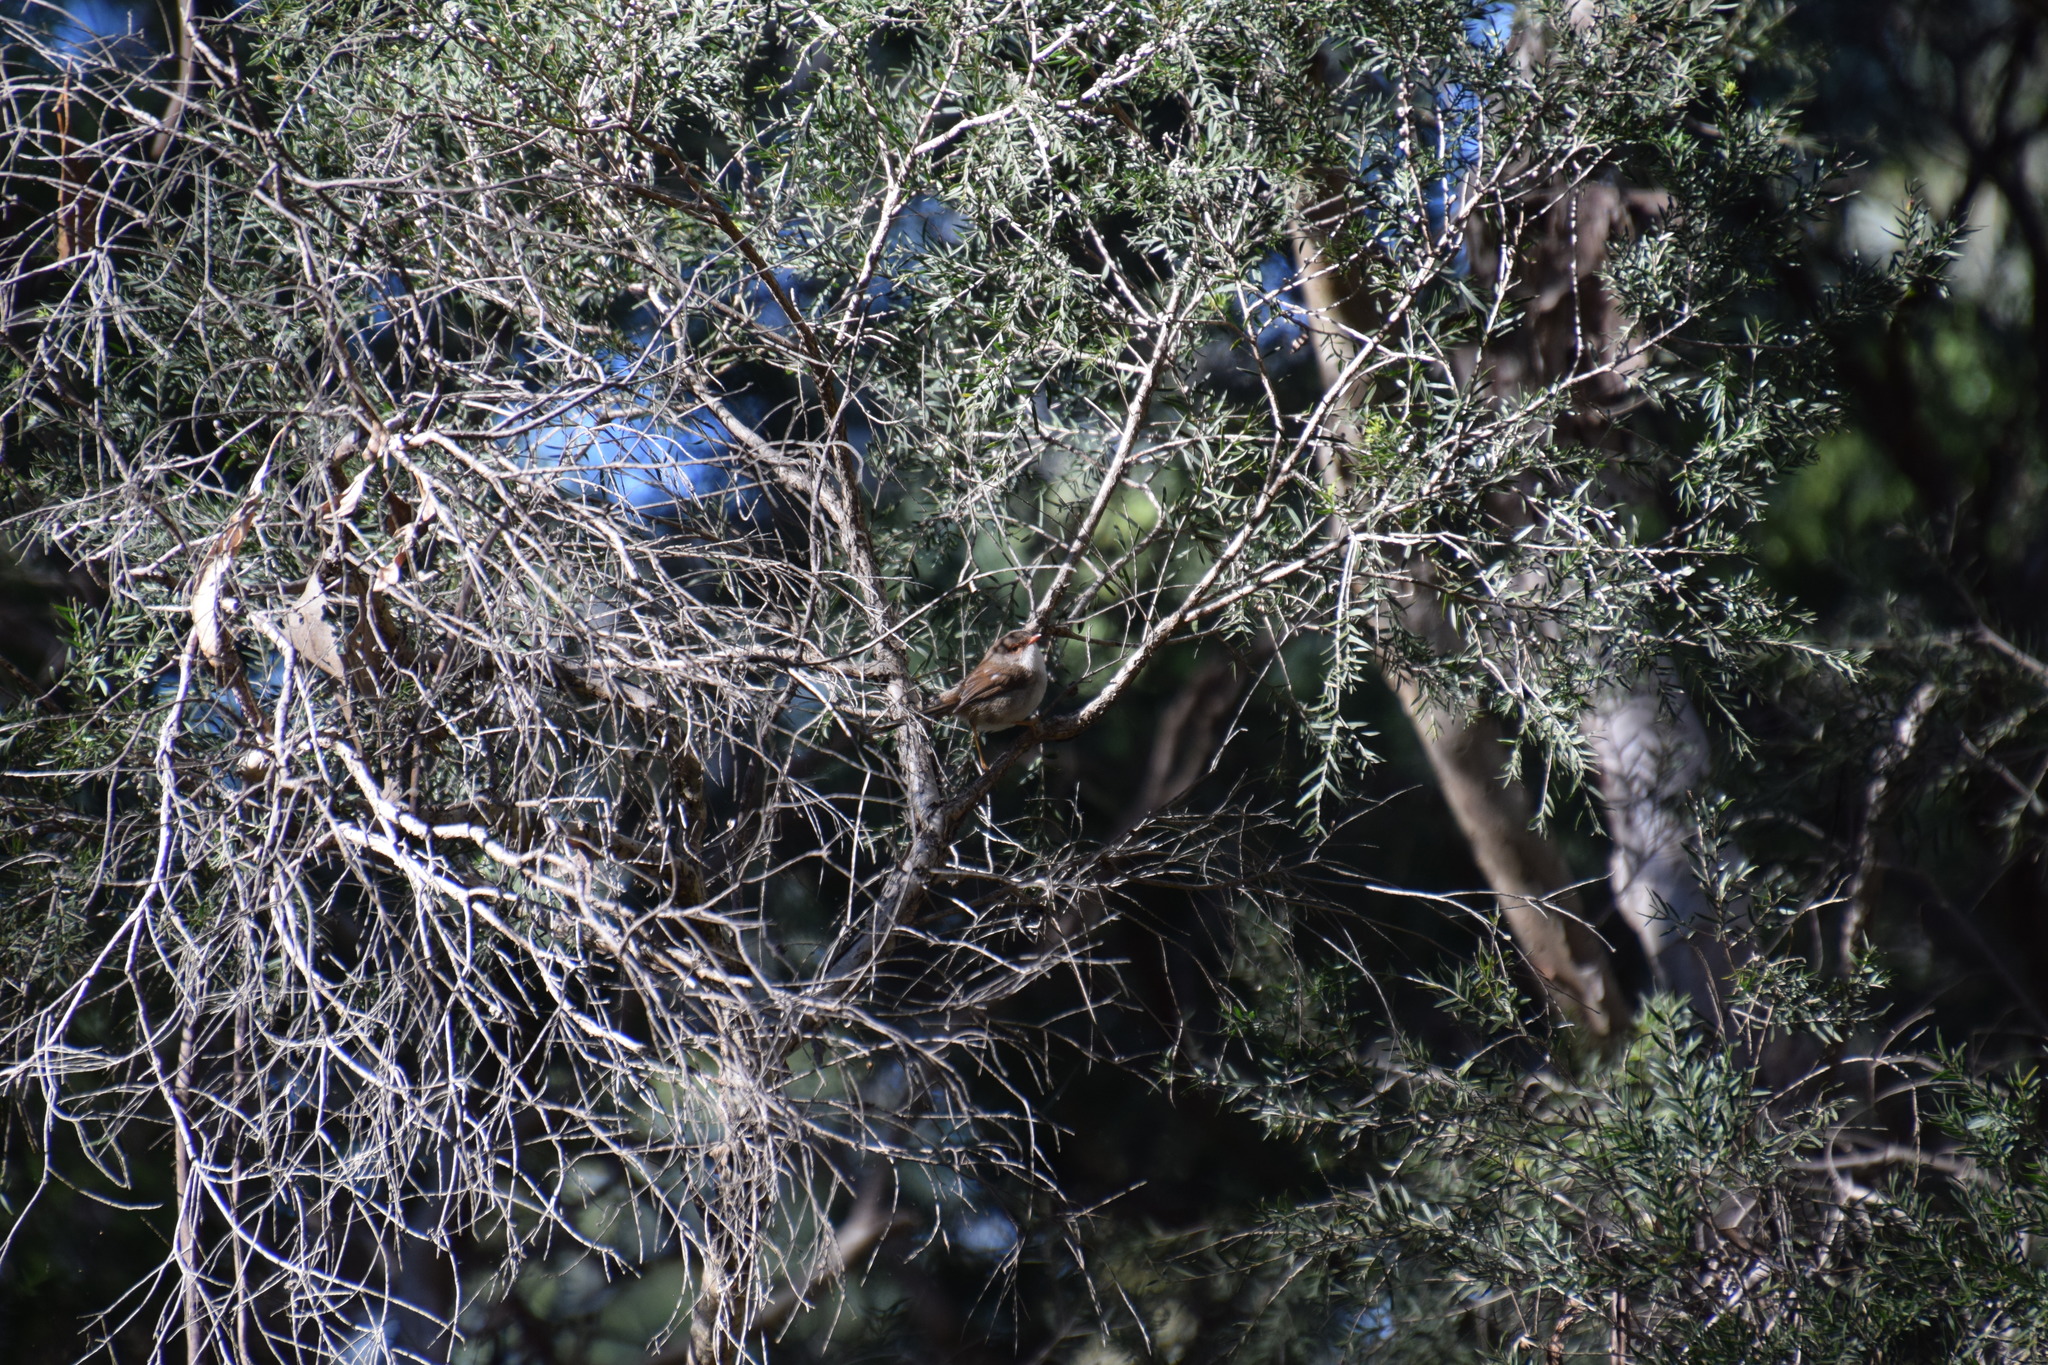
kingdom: Animalia
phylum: Chordata
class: Aves
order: Passeriformes
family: Maluridae
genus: Malurus
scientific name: Malurus cyaneus
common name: Superb fairywren
